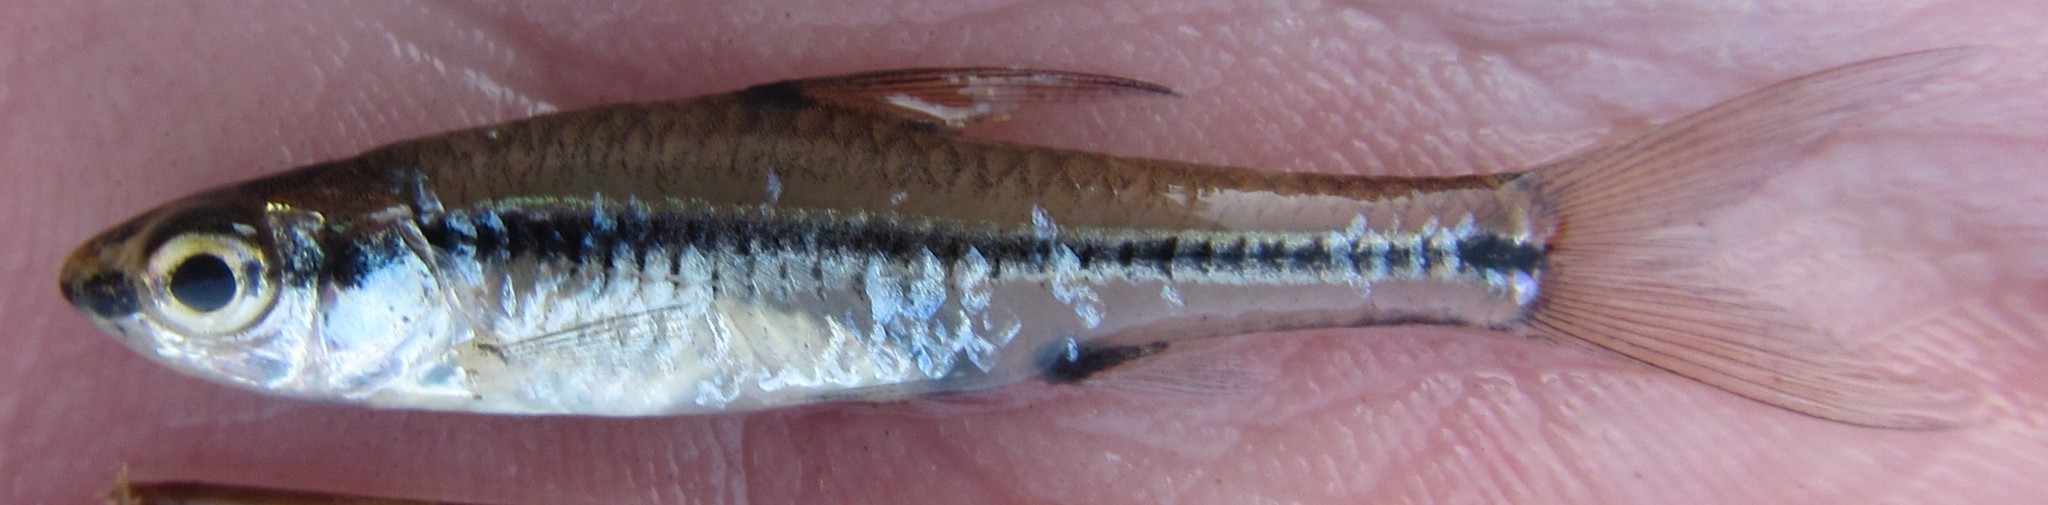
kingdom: Animalia
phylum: Chordata
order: Cypriniformes
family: Cyprinidae
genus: Enteromius
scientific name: Enteromius barnardi
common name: Blackback barb
